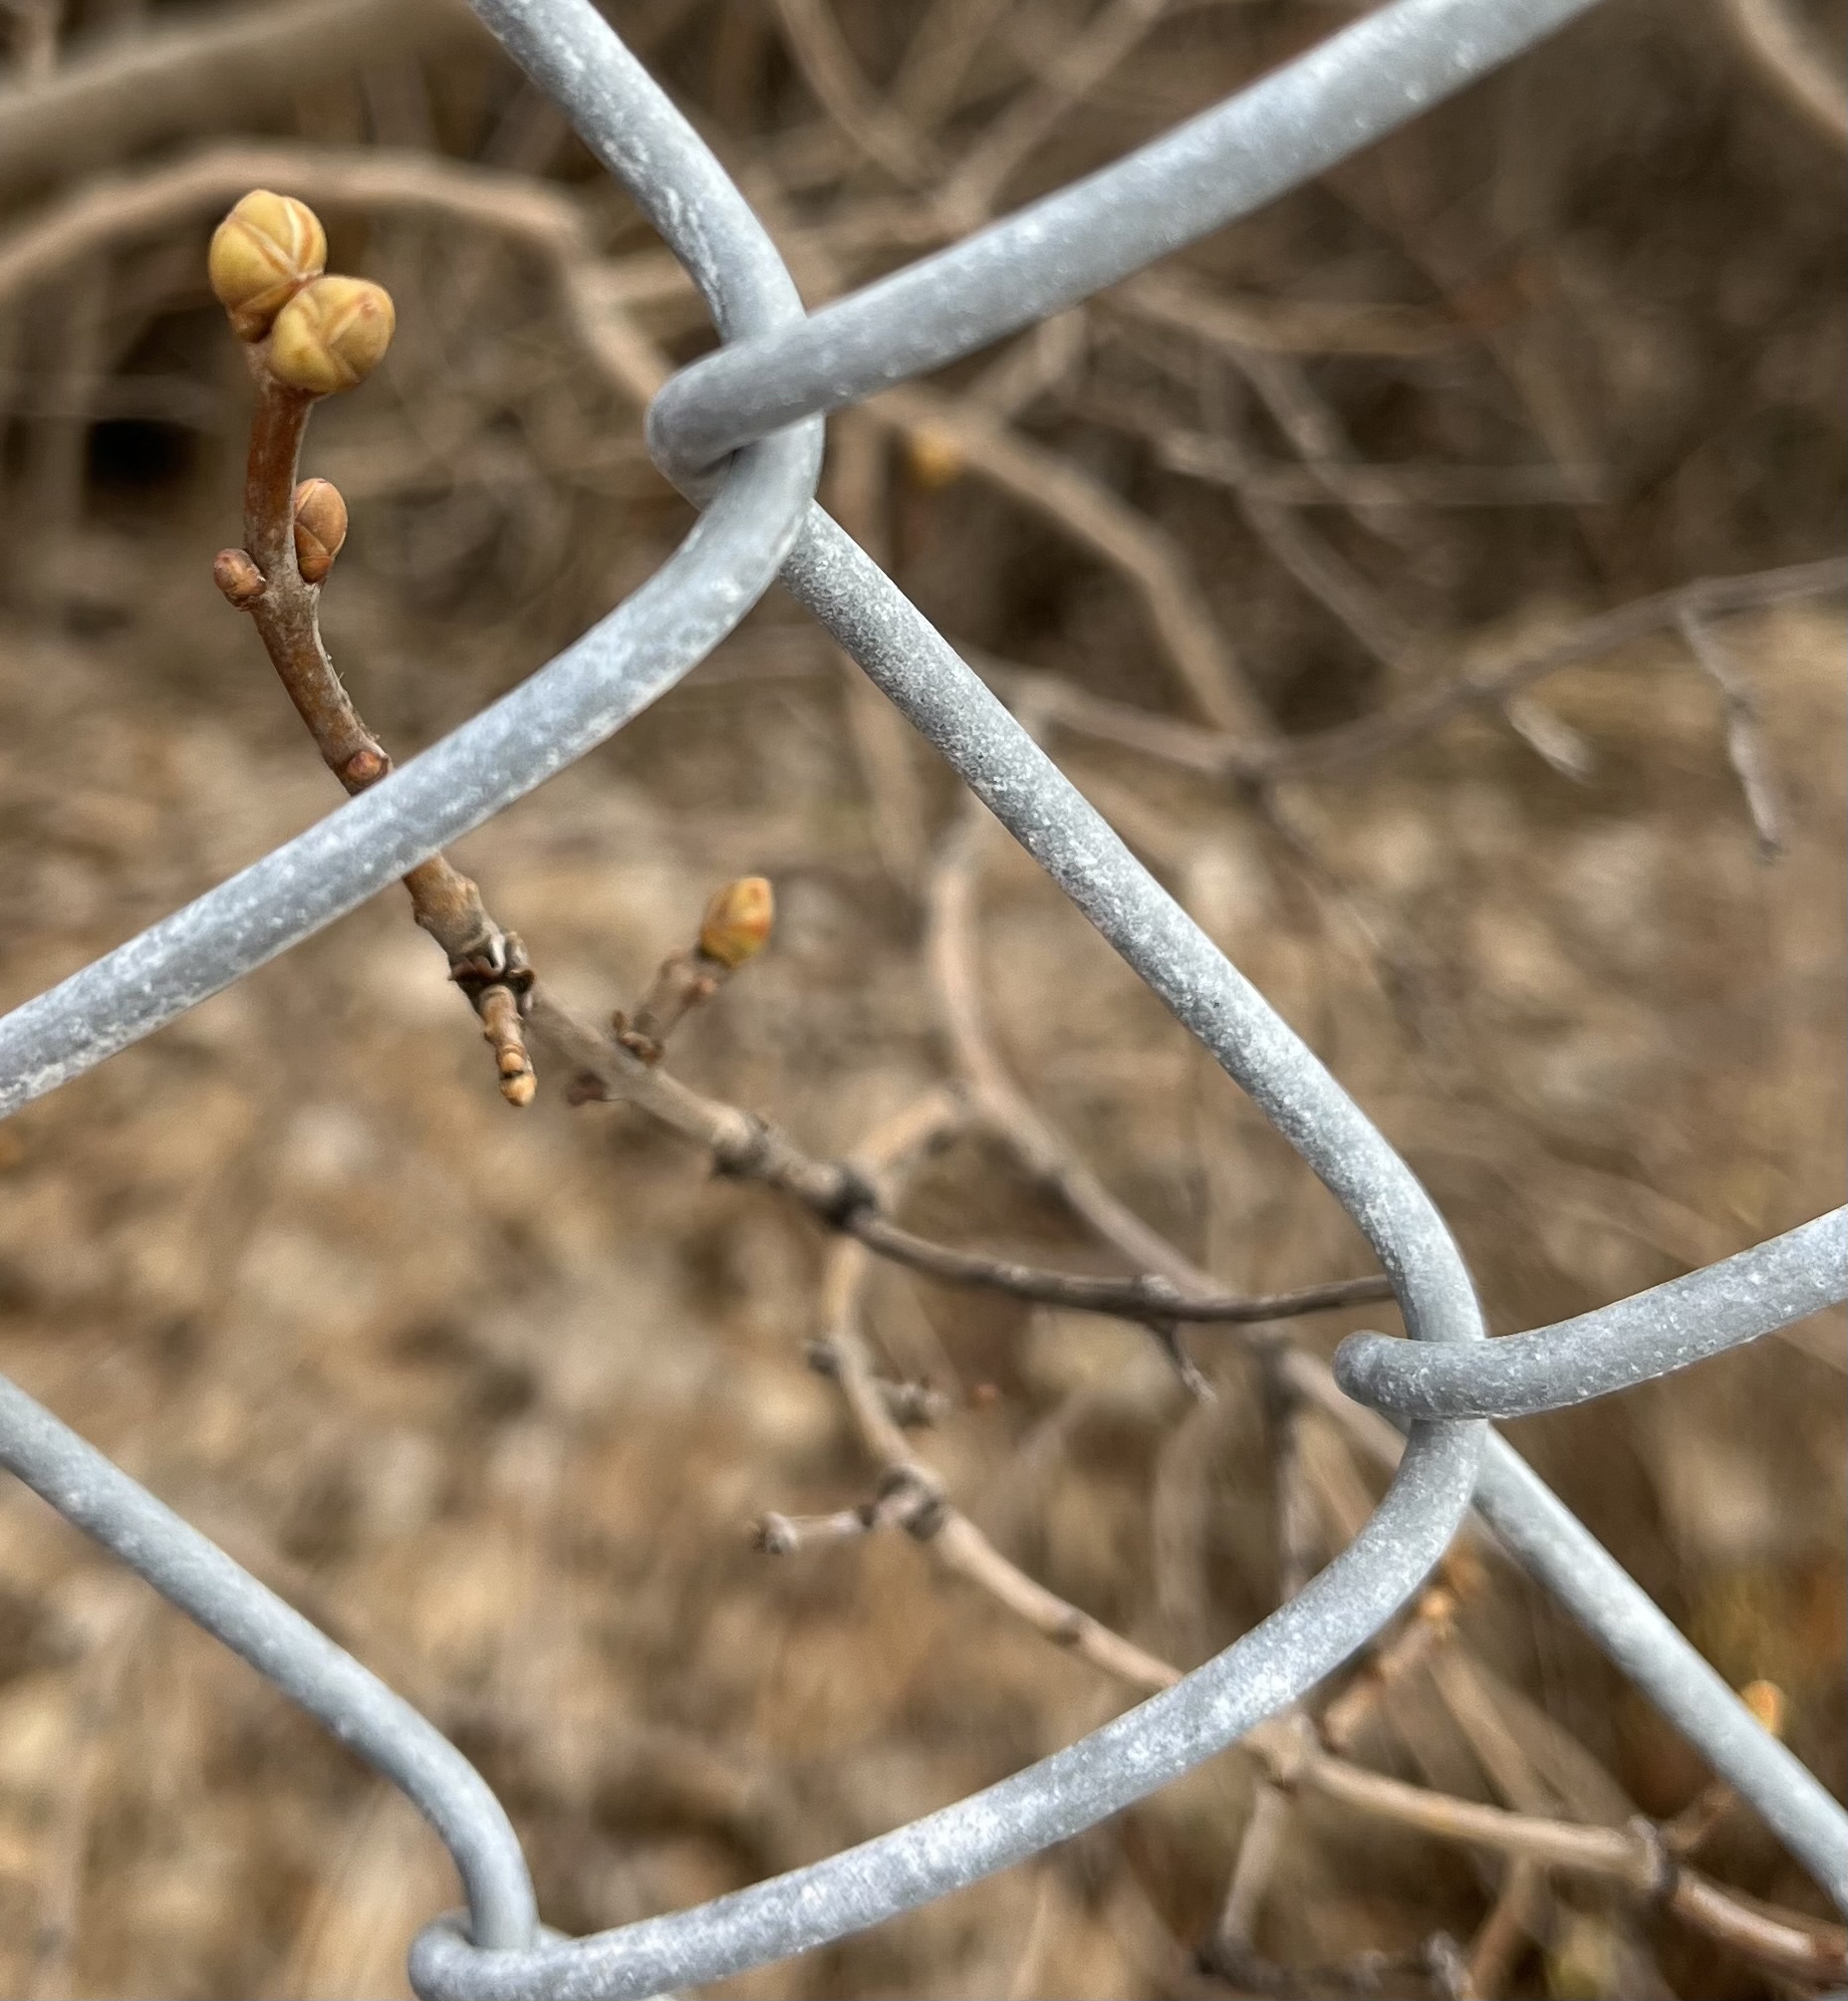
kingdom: Plantae
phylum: Tracheophyta
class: Magnoliopsida
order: Lamiales
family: Oleaceae
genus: Syringa
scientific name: Syringa vulgaris
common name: Common lilac
